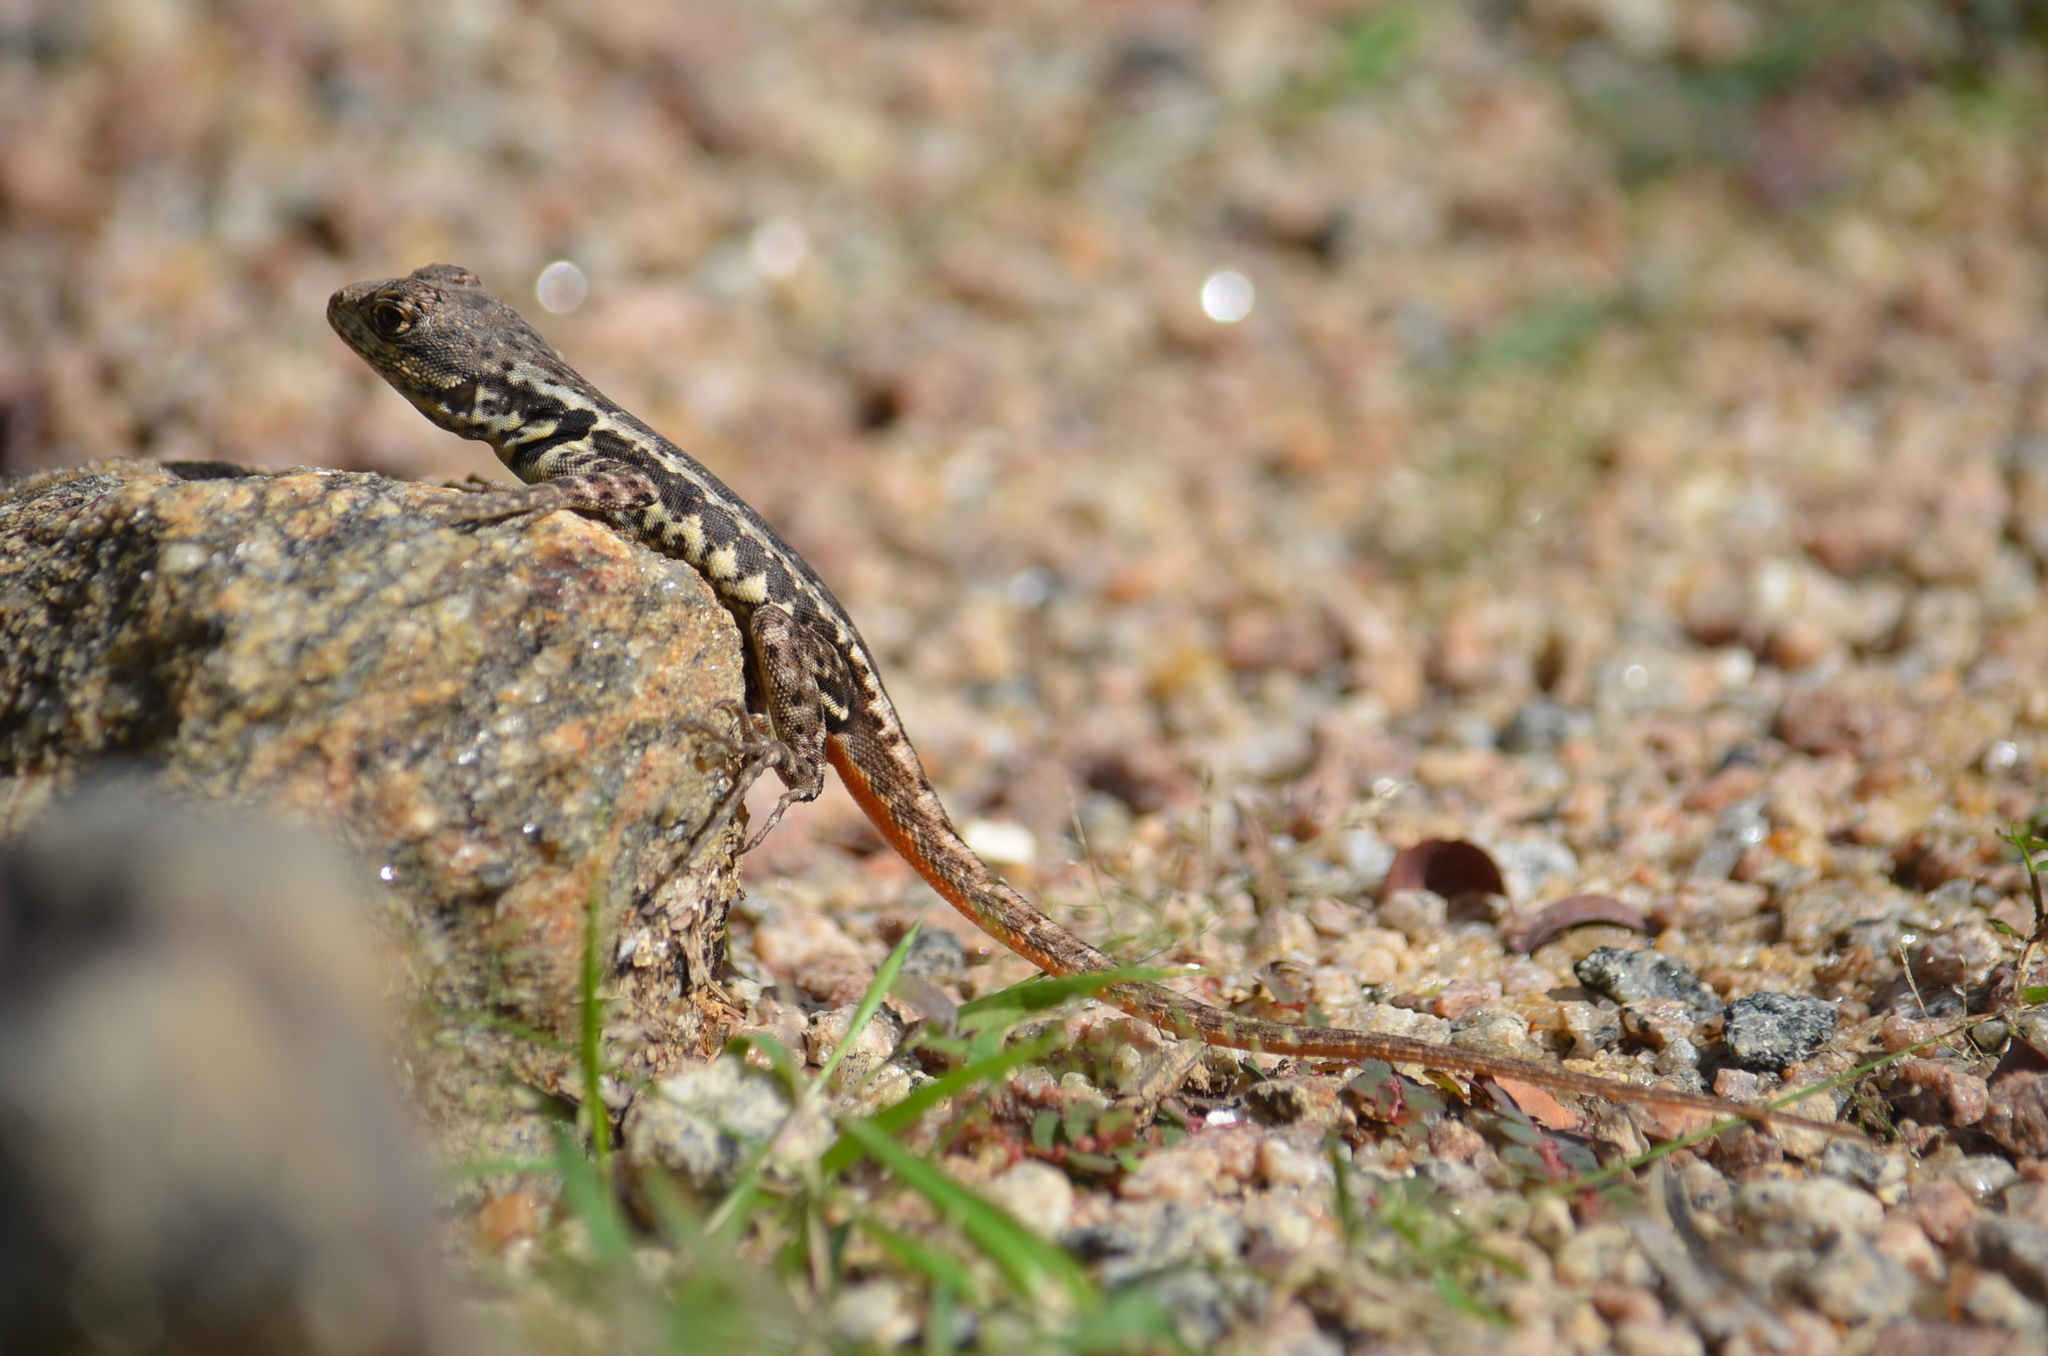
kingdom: Animalia
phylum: Chordata
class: Squamata
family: Tropiduridae
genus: Tropidurus
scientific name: Tropidurus torquatus
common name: Amazon lava lizard
